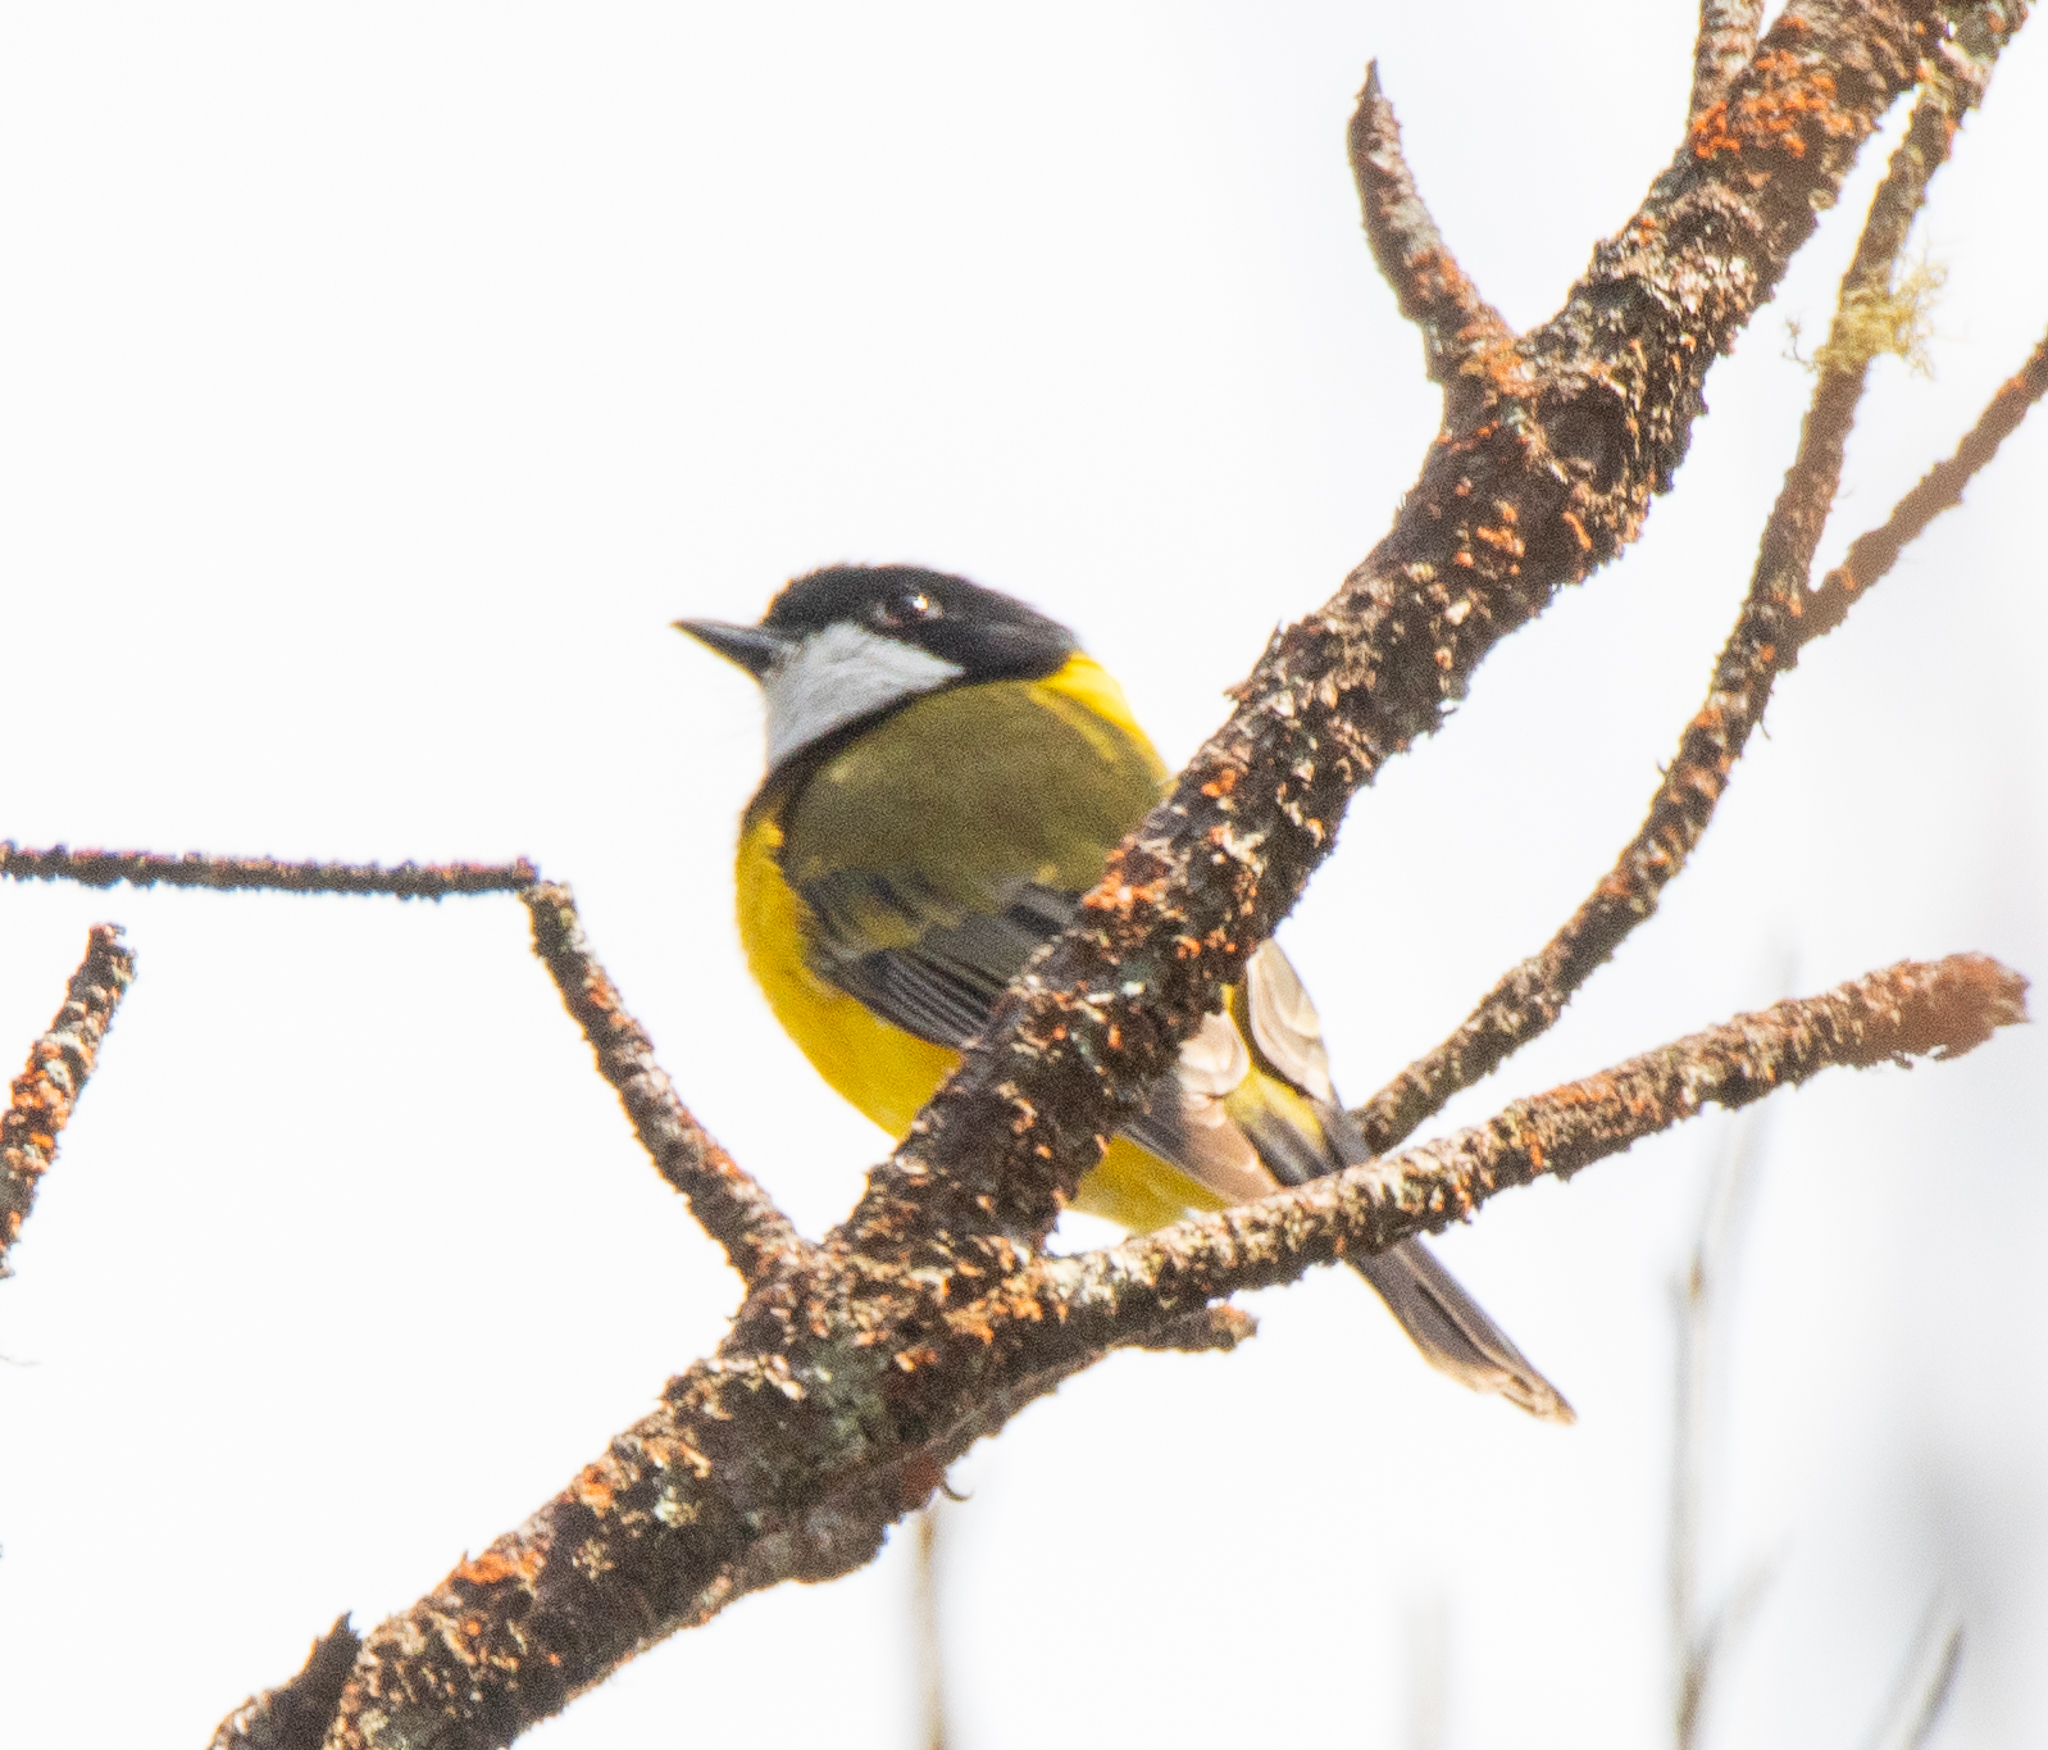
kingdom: Animalia
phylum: Chordata
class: Aves
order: Passeriformes
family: Pachycephalidae
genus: Pachycephala
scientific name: Pachycephala pectoralis
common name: Australian golden whistler
